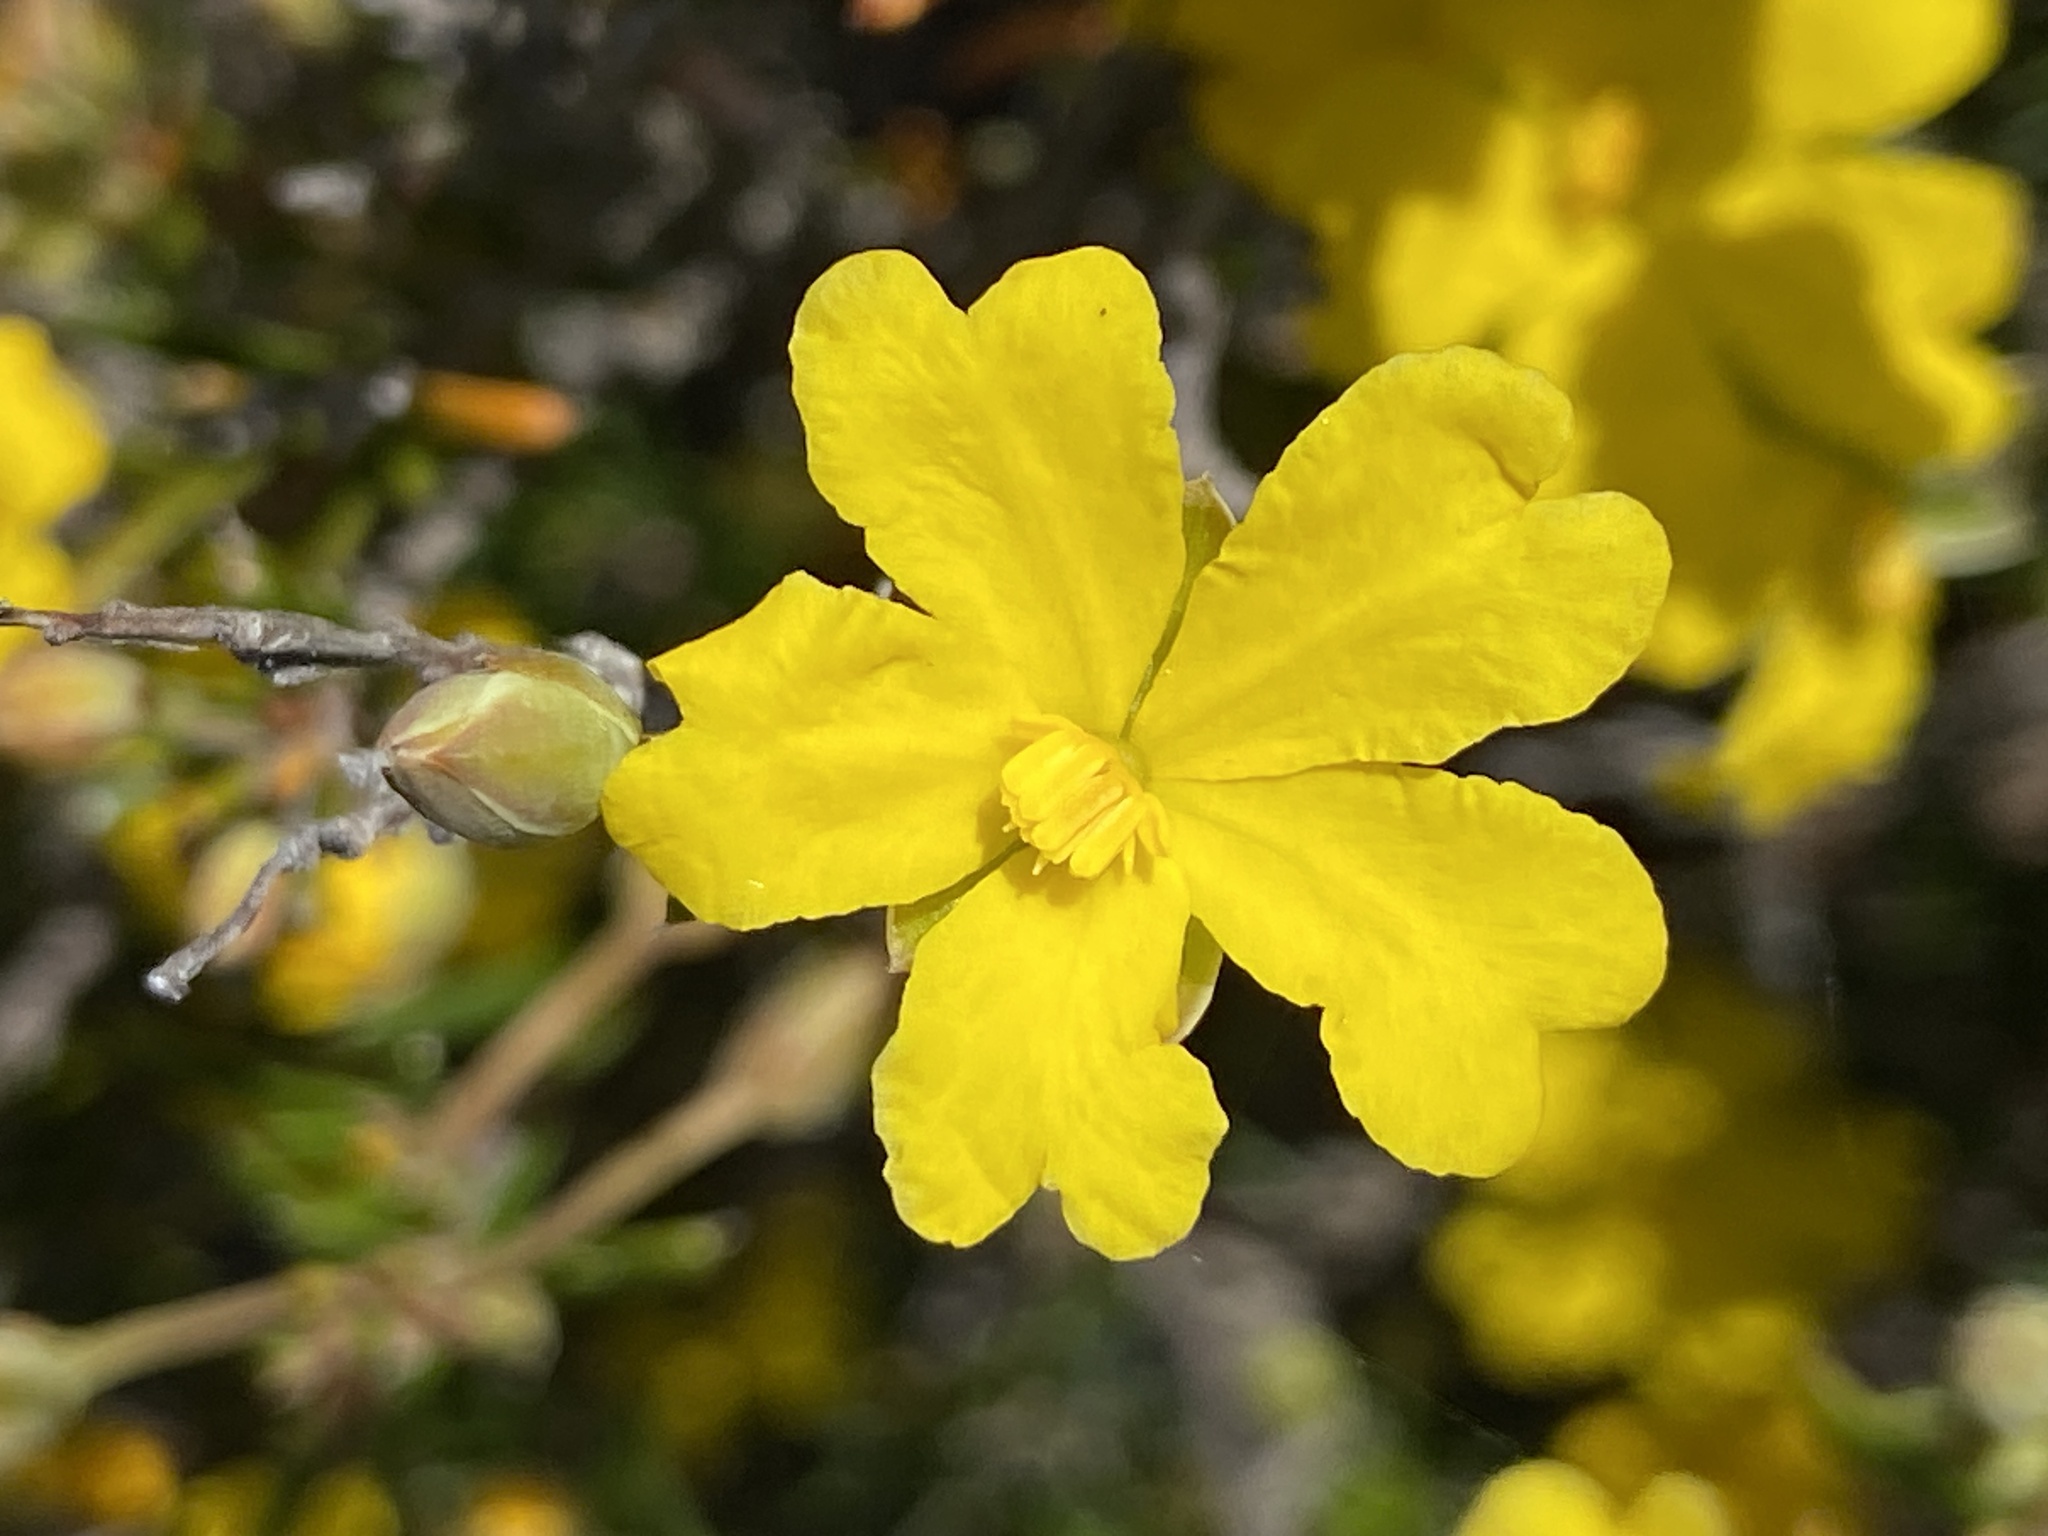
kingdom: Plantae
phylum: Tracheophyta
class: Magnoliopsida
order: Dilleniales
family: Dilleniaceae
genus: Hibbertia
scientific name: Hibbertia lineata
